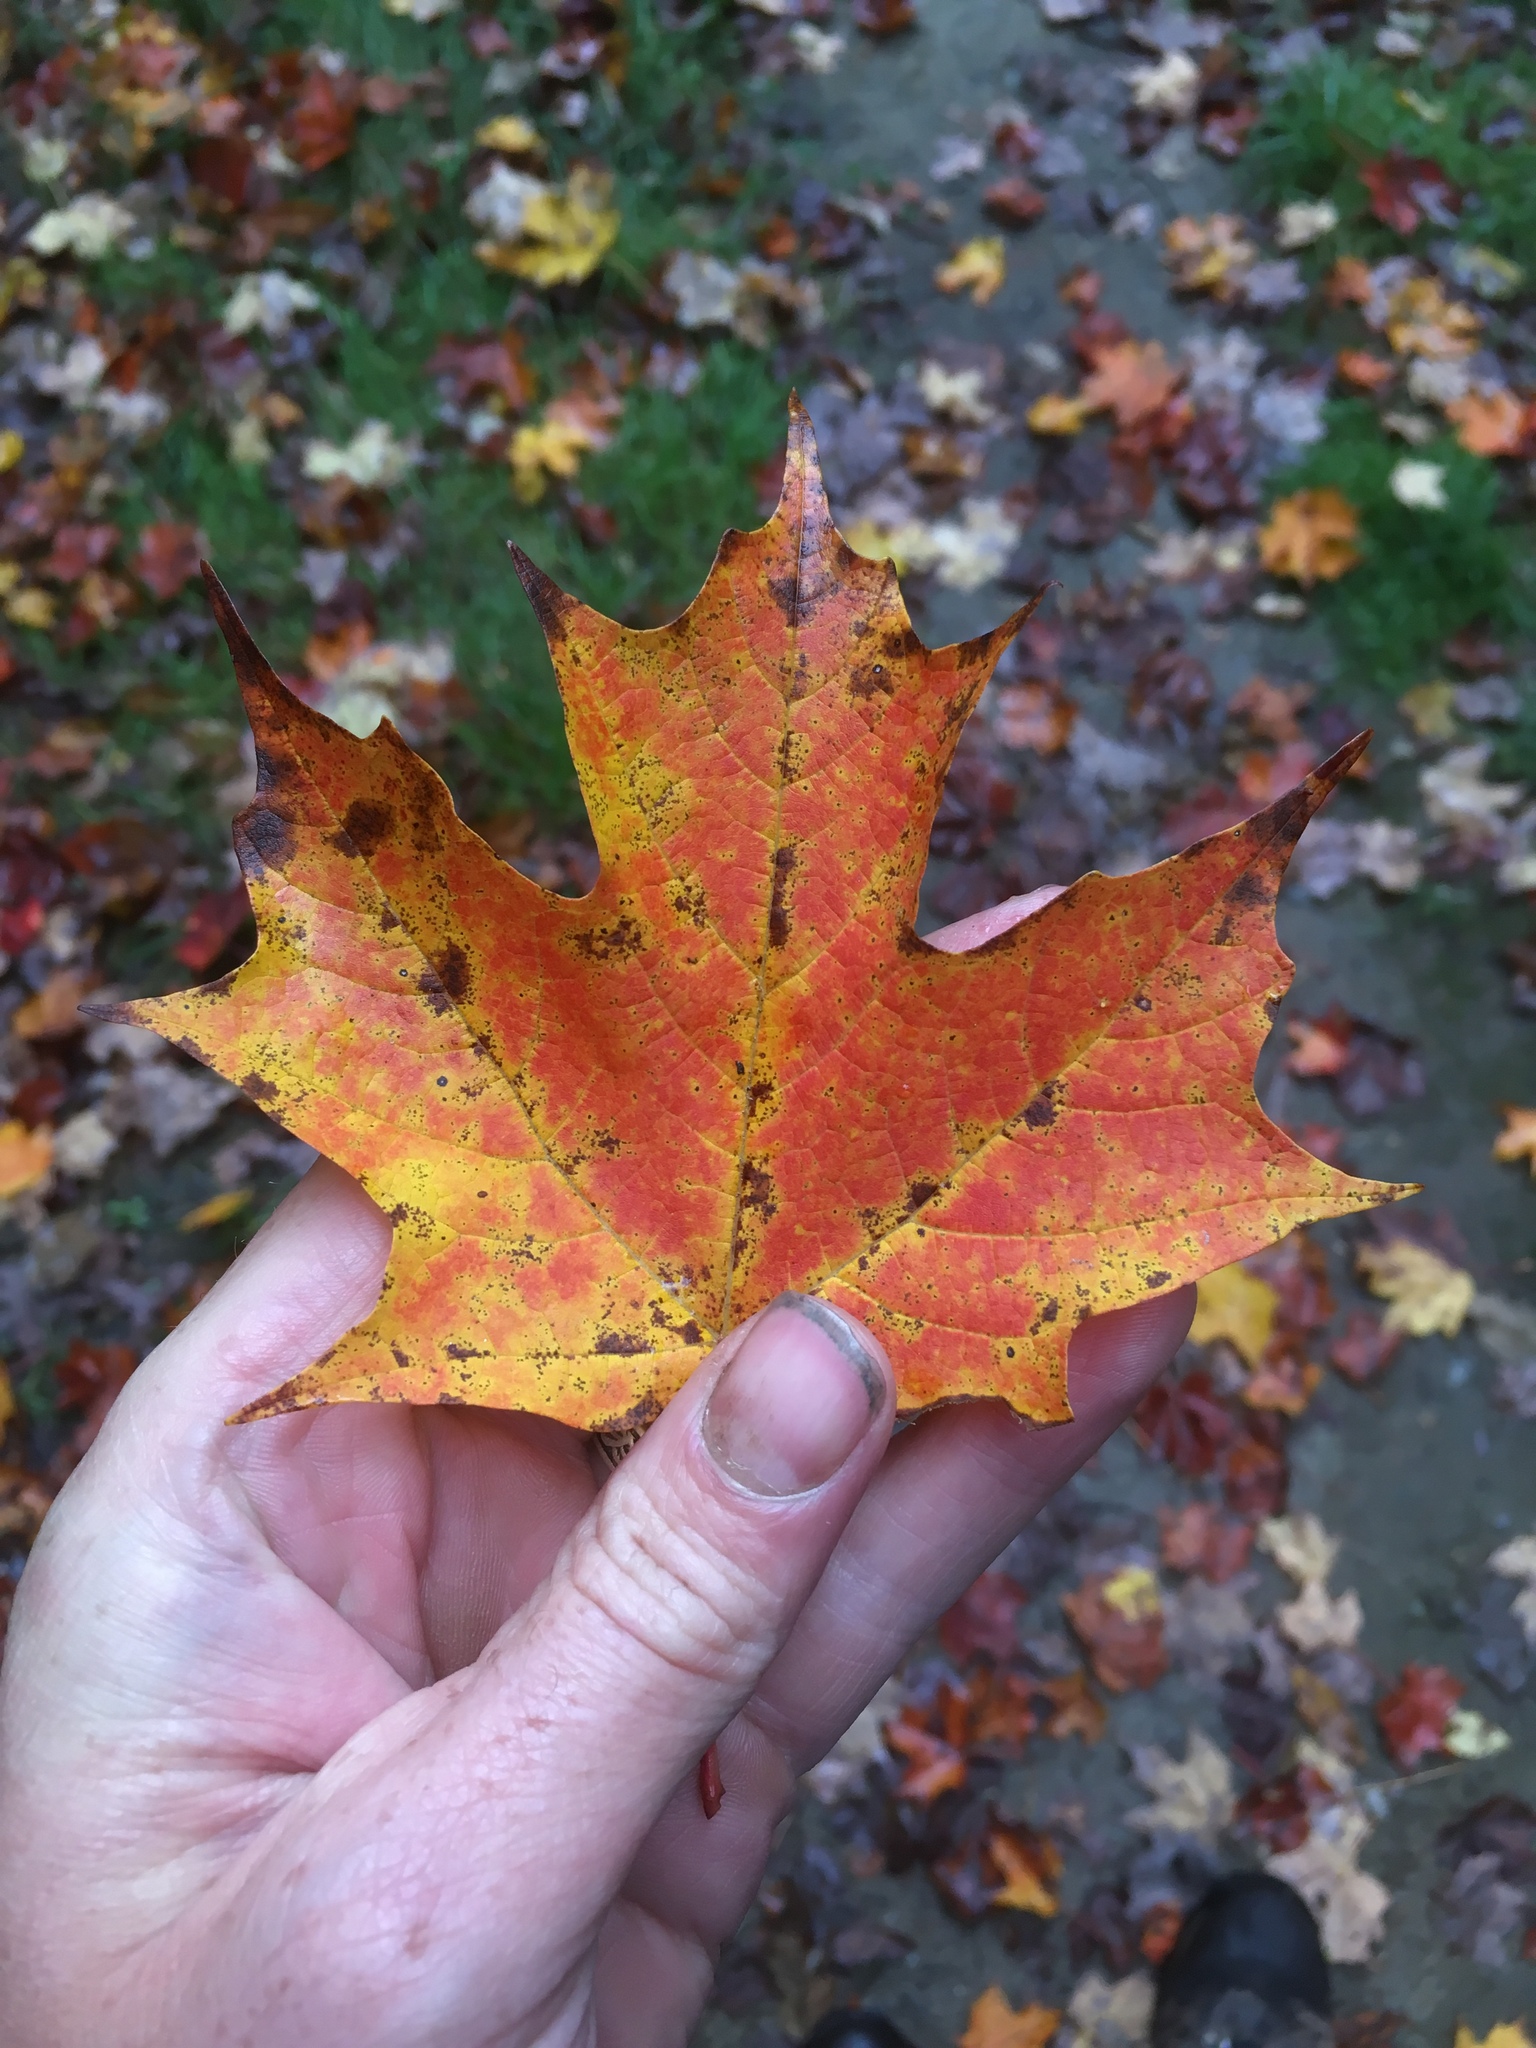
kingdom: Plantae
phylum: Tracheophyta
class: Magnoliopsida
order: Sapindales
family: Sapindaceae
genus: Acer
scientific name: Acer saccharum
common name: Sugar maple
